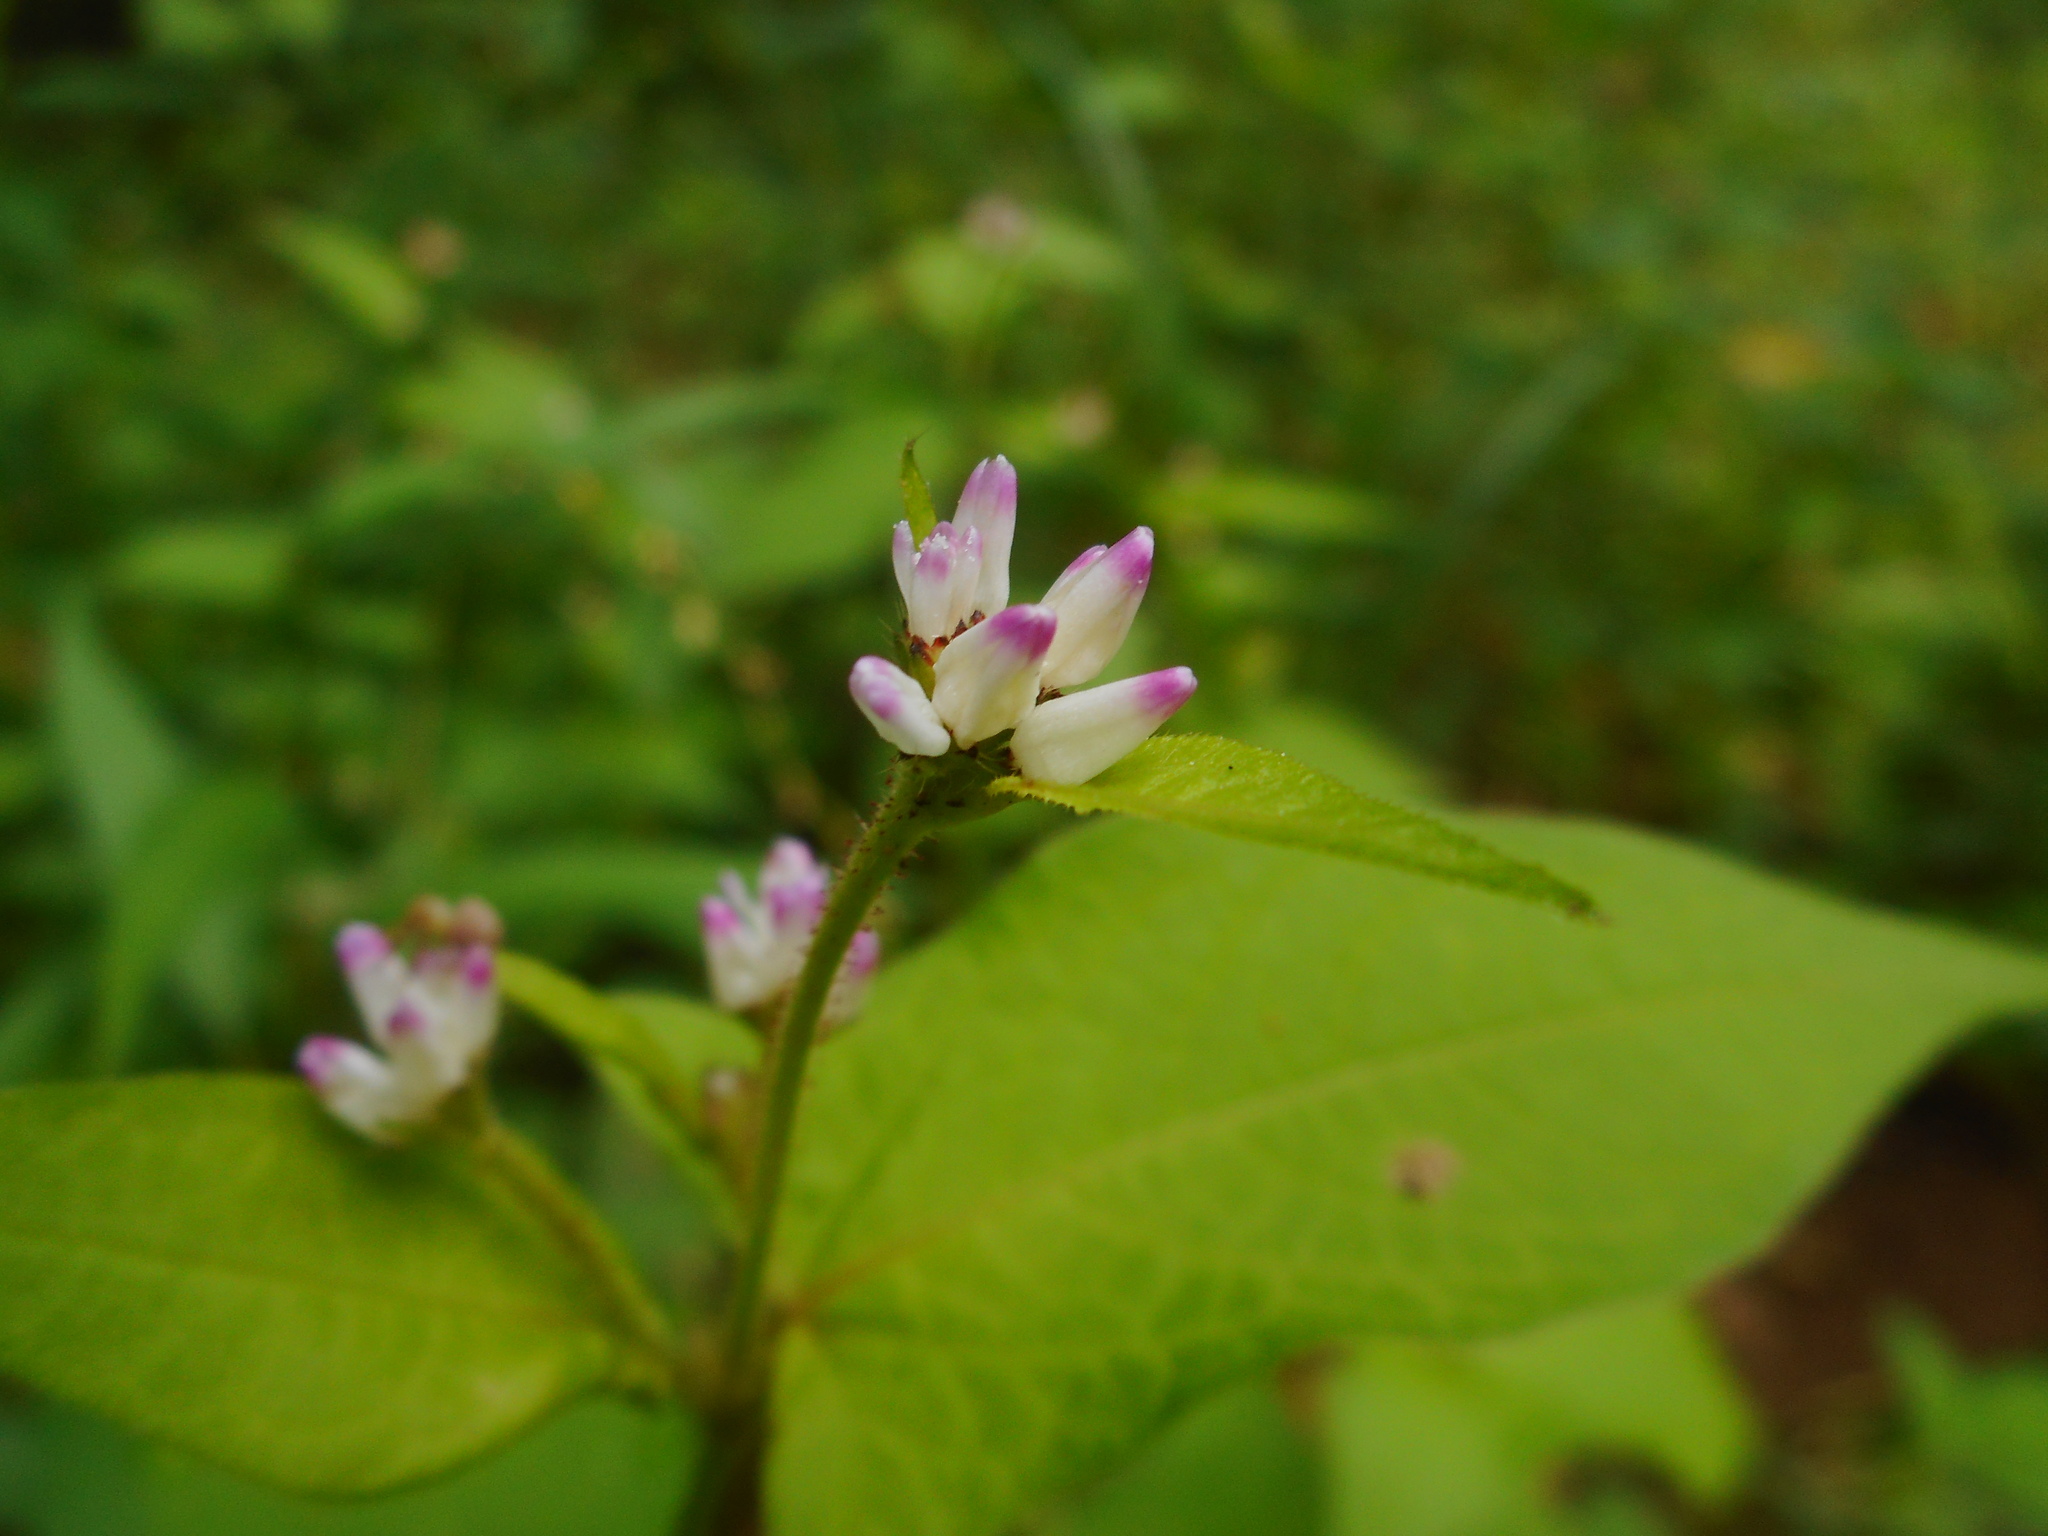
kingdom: Plantae
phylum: Tracheophyta
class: Magnoliopsida
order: Caryophyllales
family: Polygonaceae
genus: Persicaria
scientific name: Persicaria thunbergii
